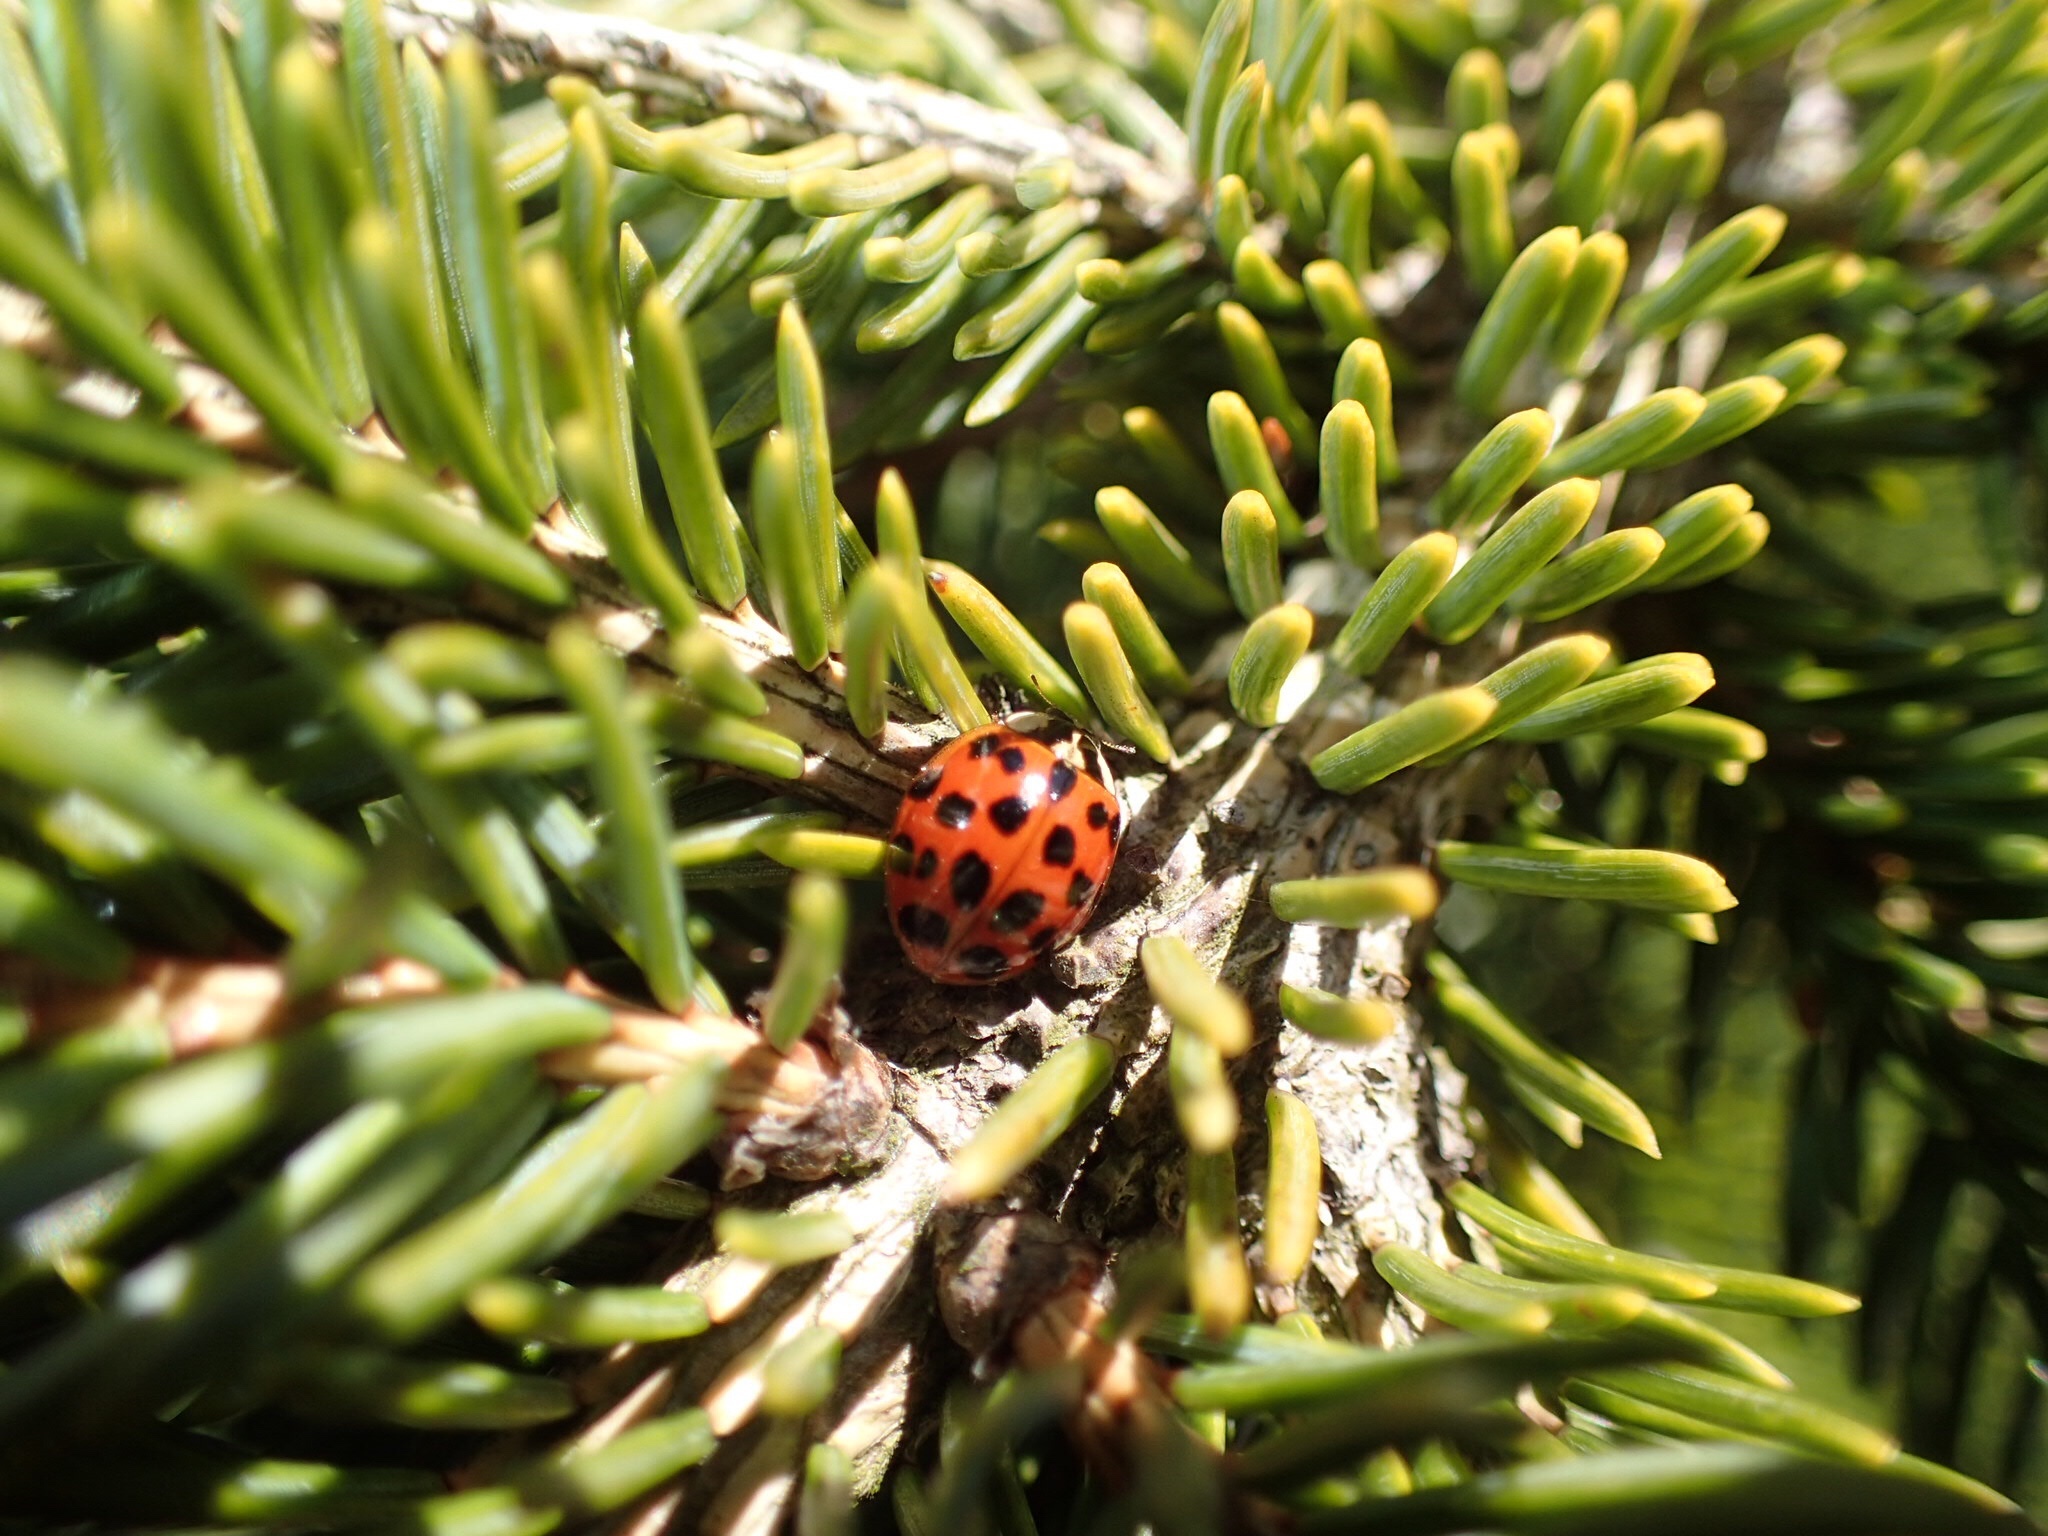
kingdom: Animalia
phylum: Arthropoda
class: Insecta
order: Coleoptera
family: Coccinellidae
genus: Harmonia
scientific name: Harmonia axyridis
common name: Harlequin ladybird
